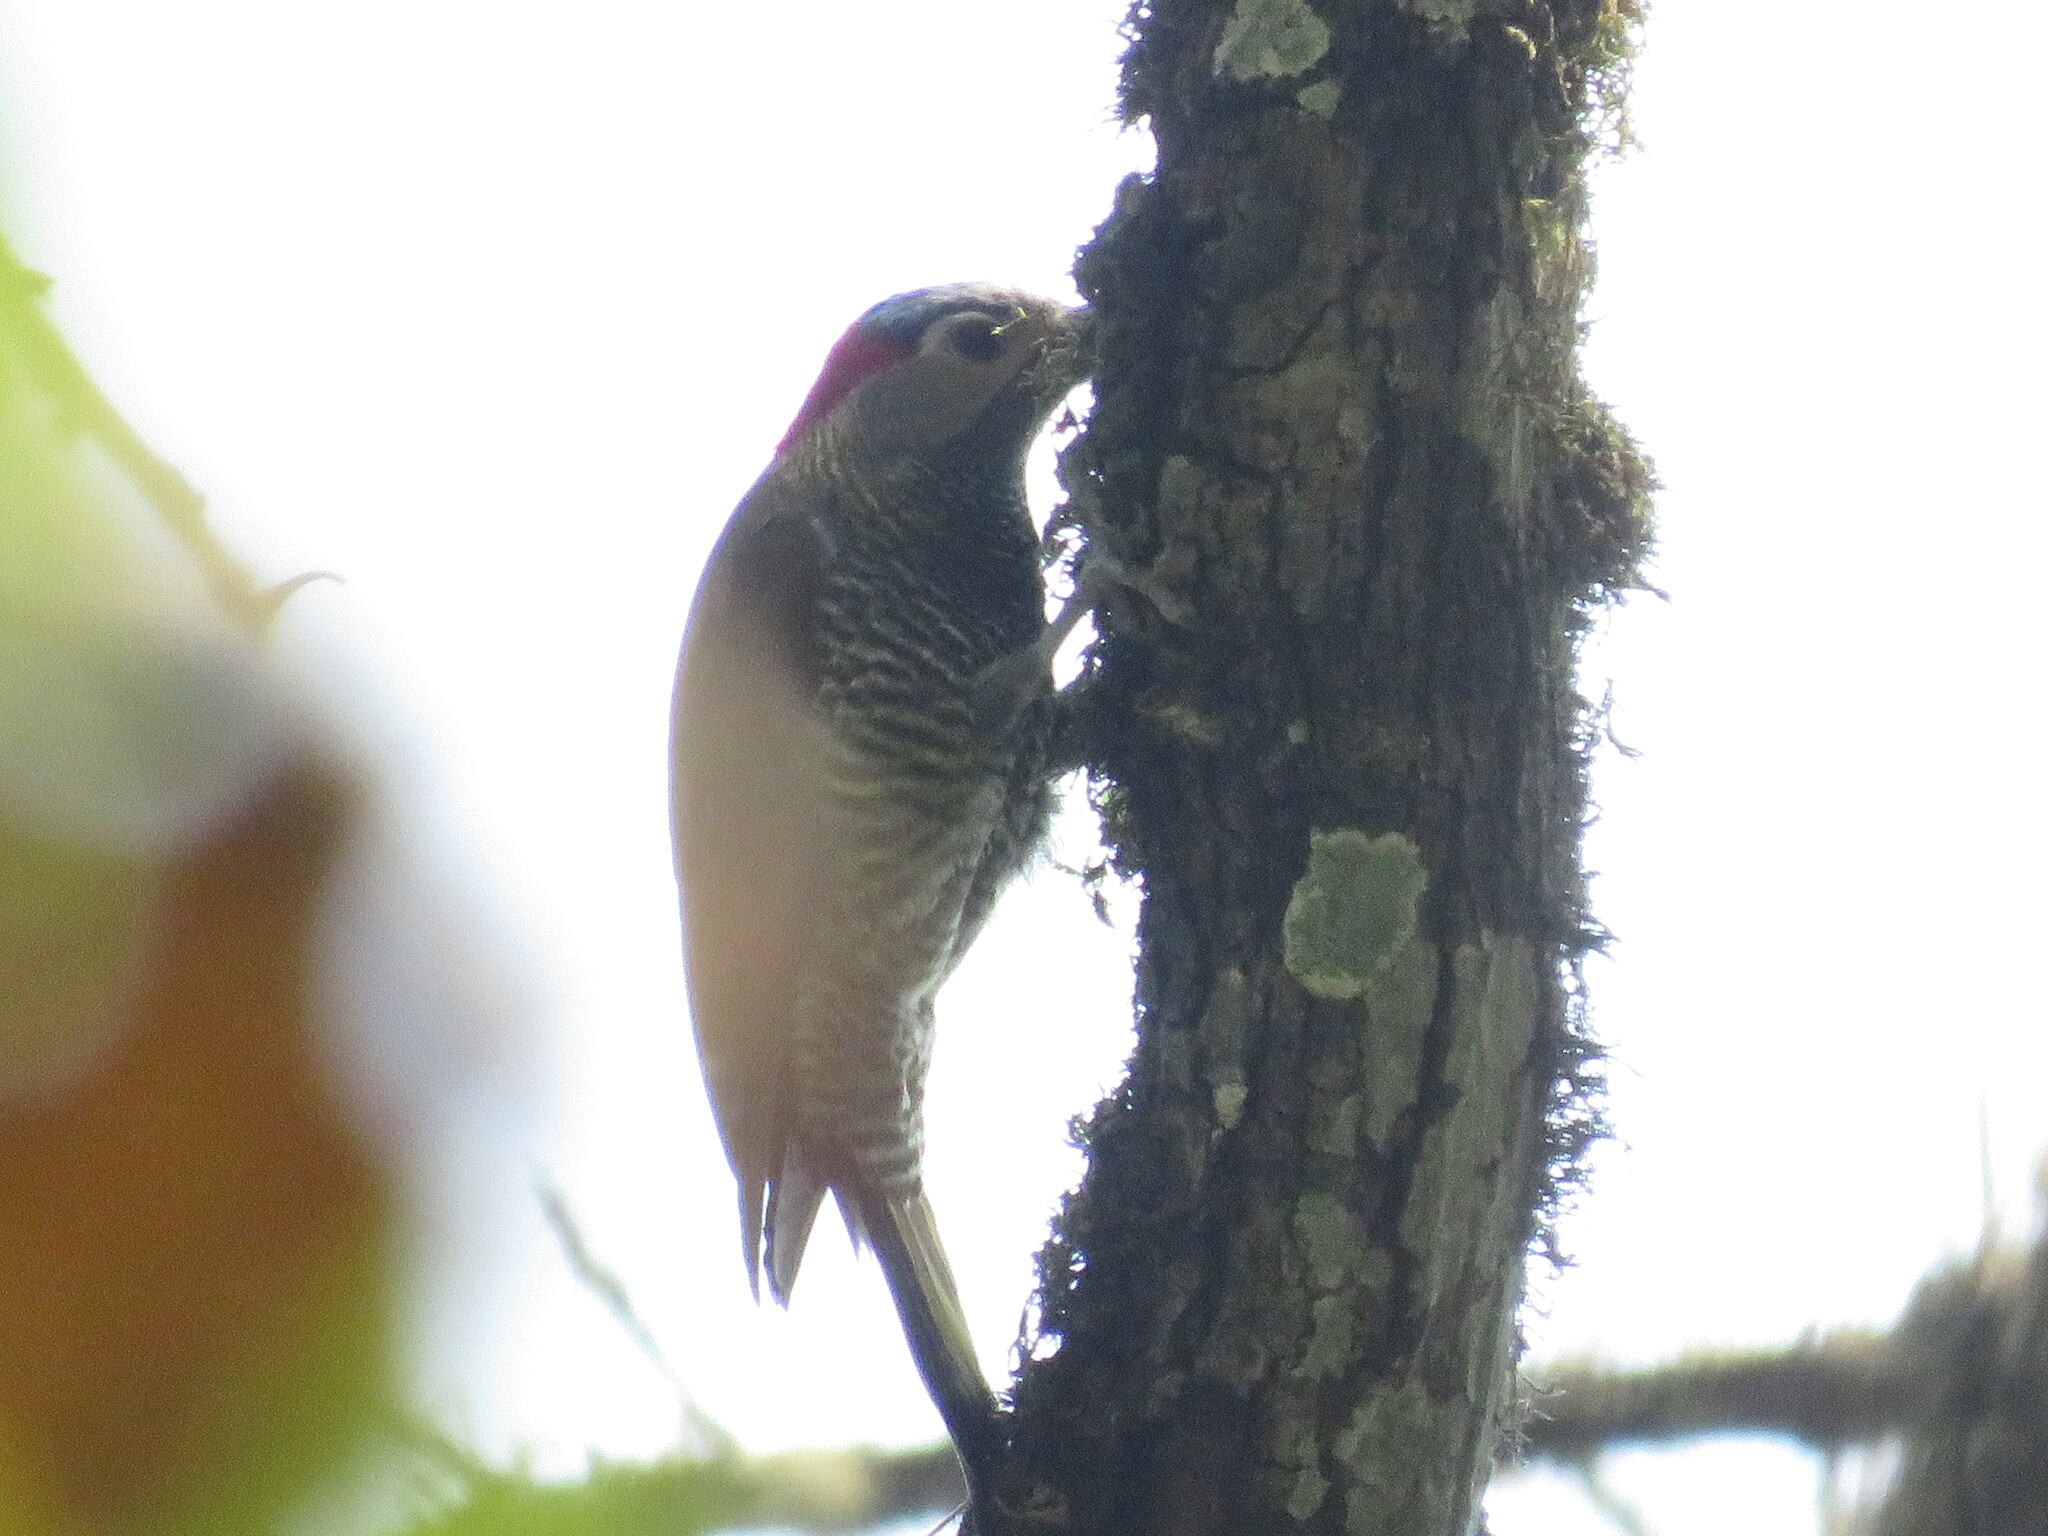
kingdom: Animalia
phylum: Chordata
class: Aves
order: Piciformes
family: Picidae
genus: Colaptes
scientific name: Colaptes rubiginosus
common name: Golden-olive woodpecker
